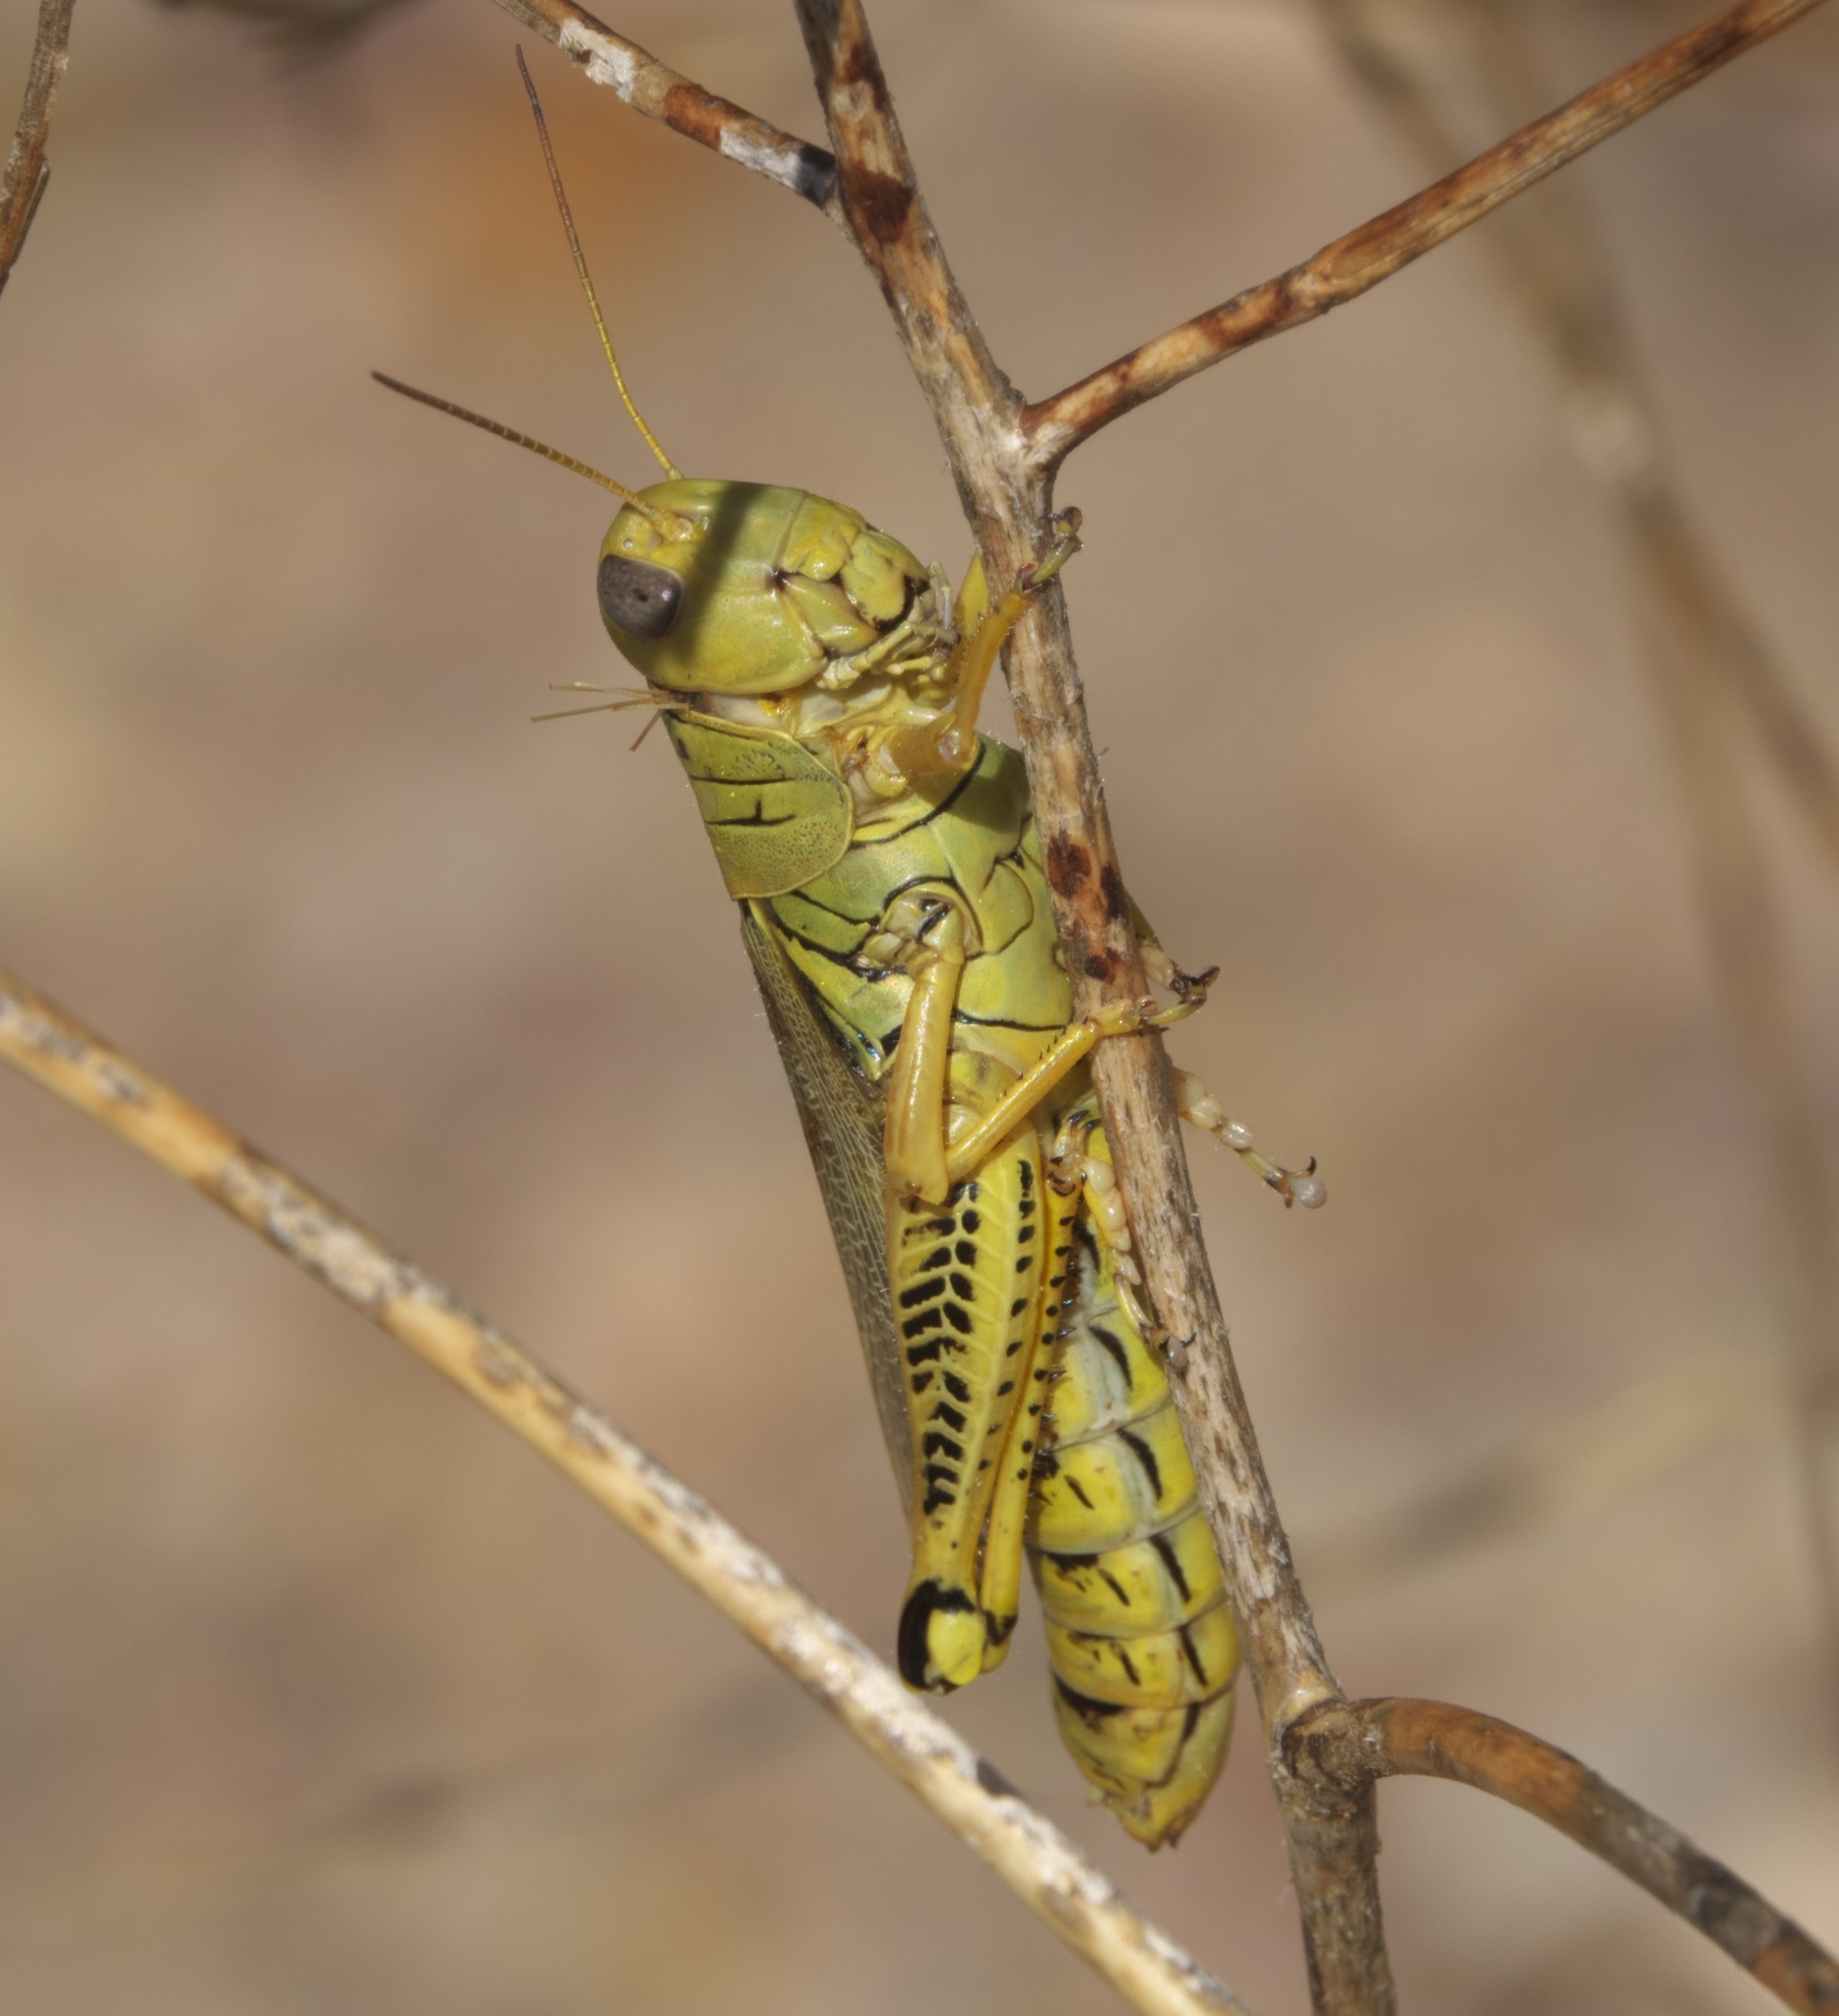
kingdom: Animalia
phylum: Arthropoda
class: Insecta
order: Orthoptera
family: Acrididae
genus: Melanoplus
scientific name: Melanoplus differentialis
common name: Differential grasshopper
